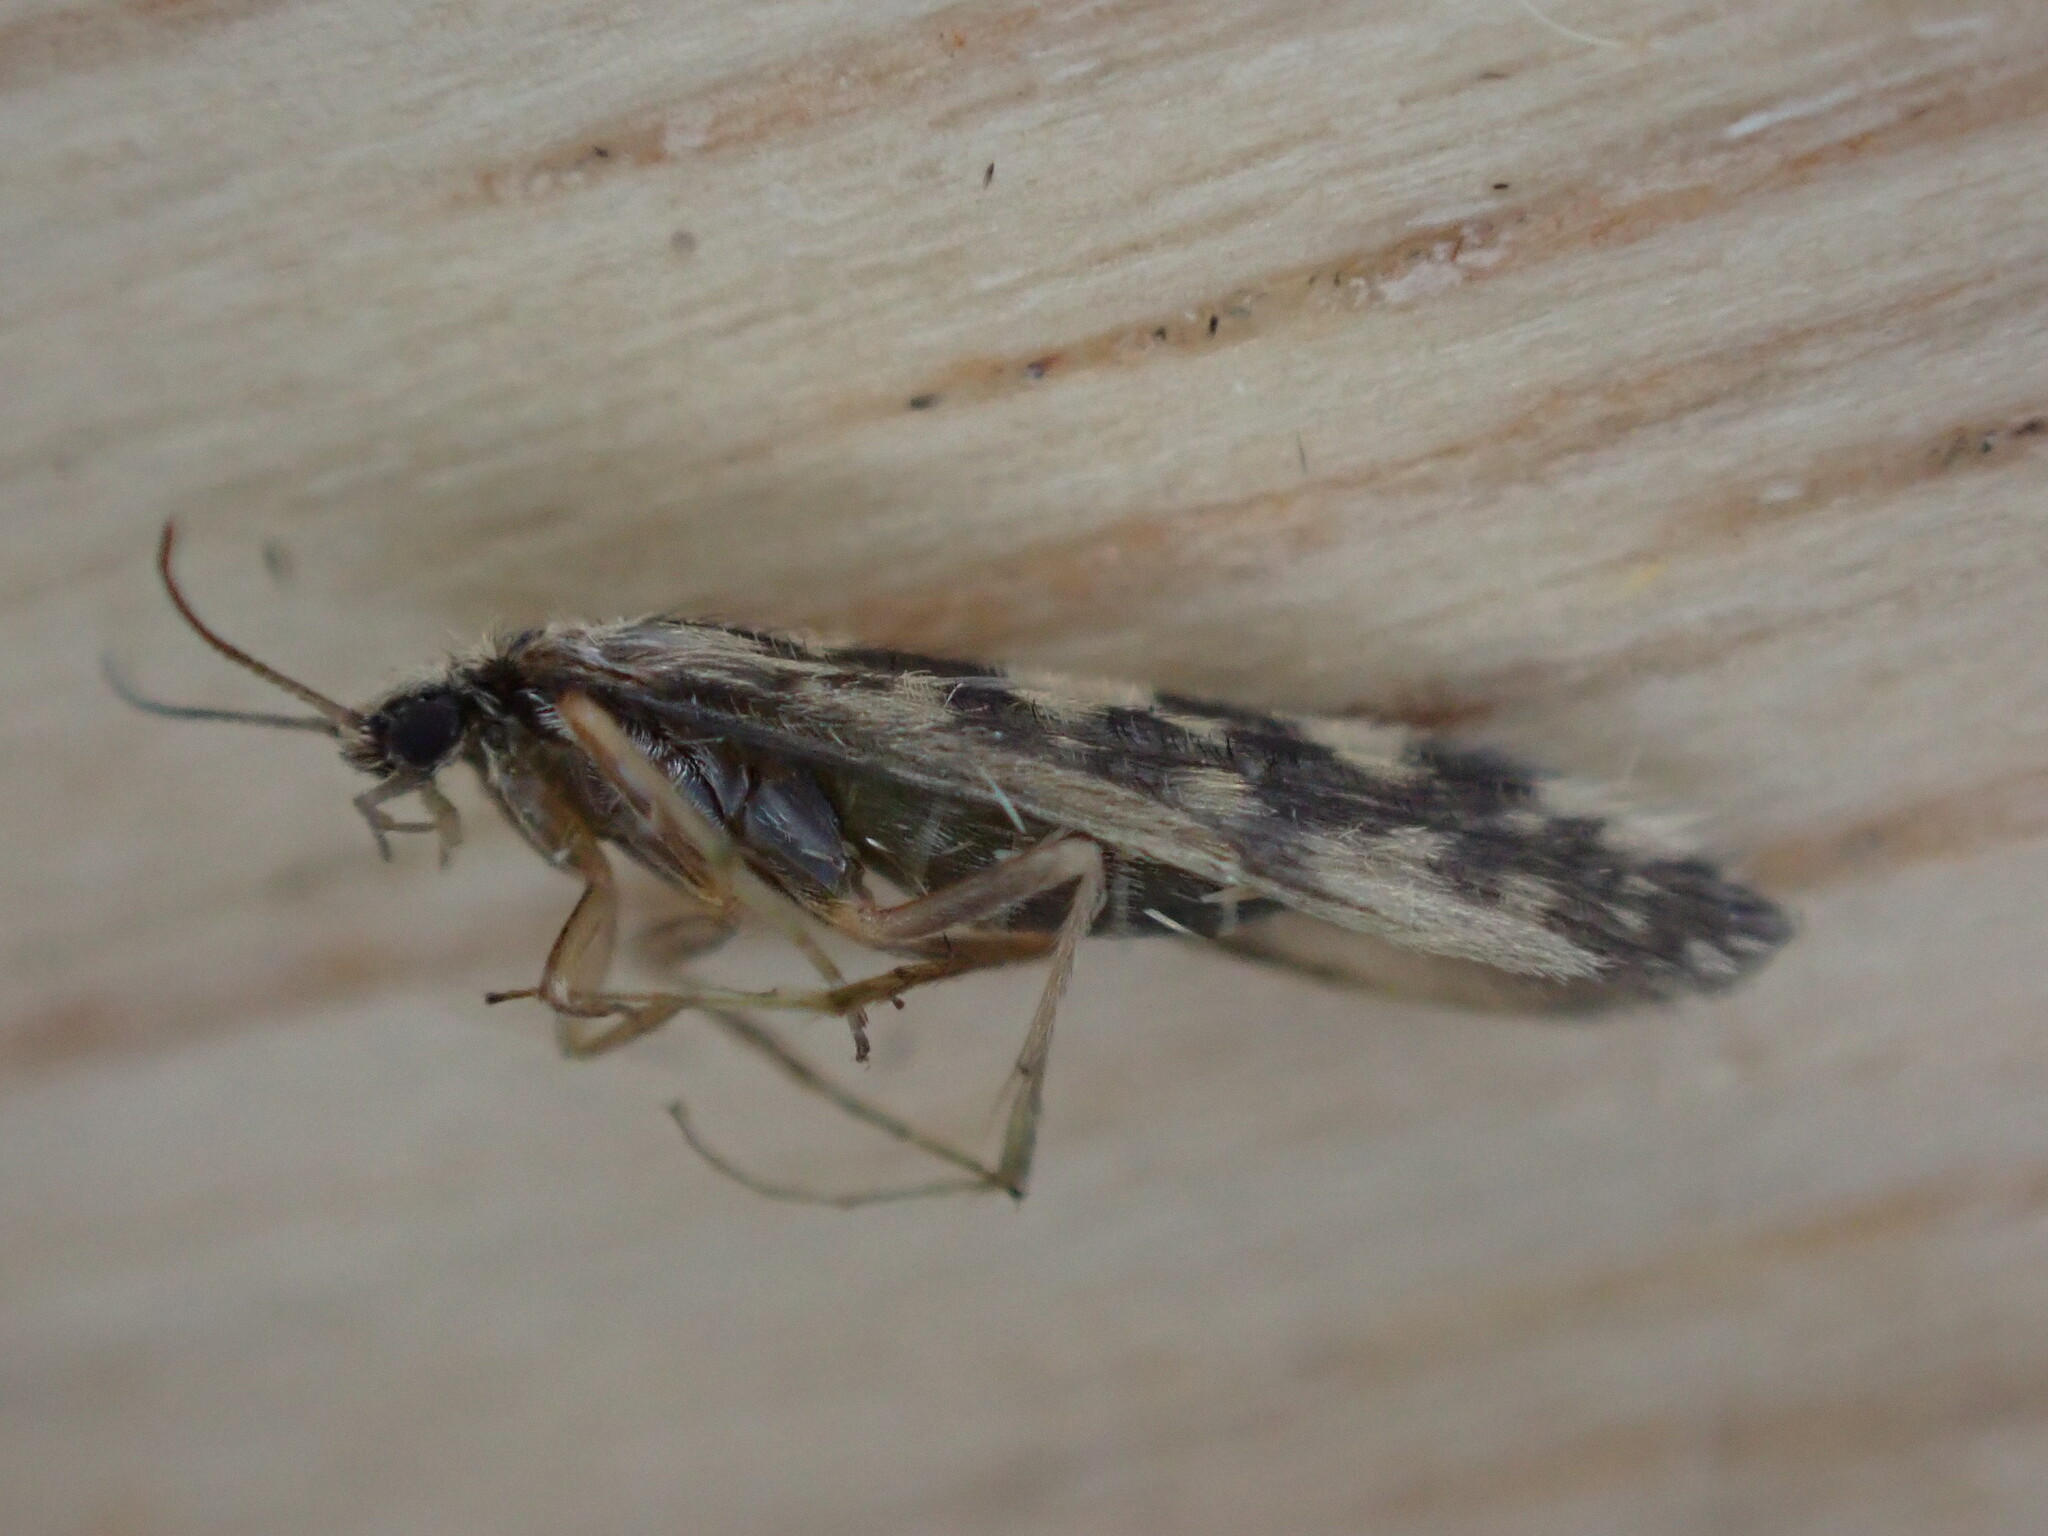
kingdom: Animalia
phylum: Arthropoda
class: Insecta
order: Trichoptera
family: Hydroptilidae
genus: Agraylea
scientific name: Agraylea multipunctata
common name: Salt and pepper microcaddisfly
